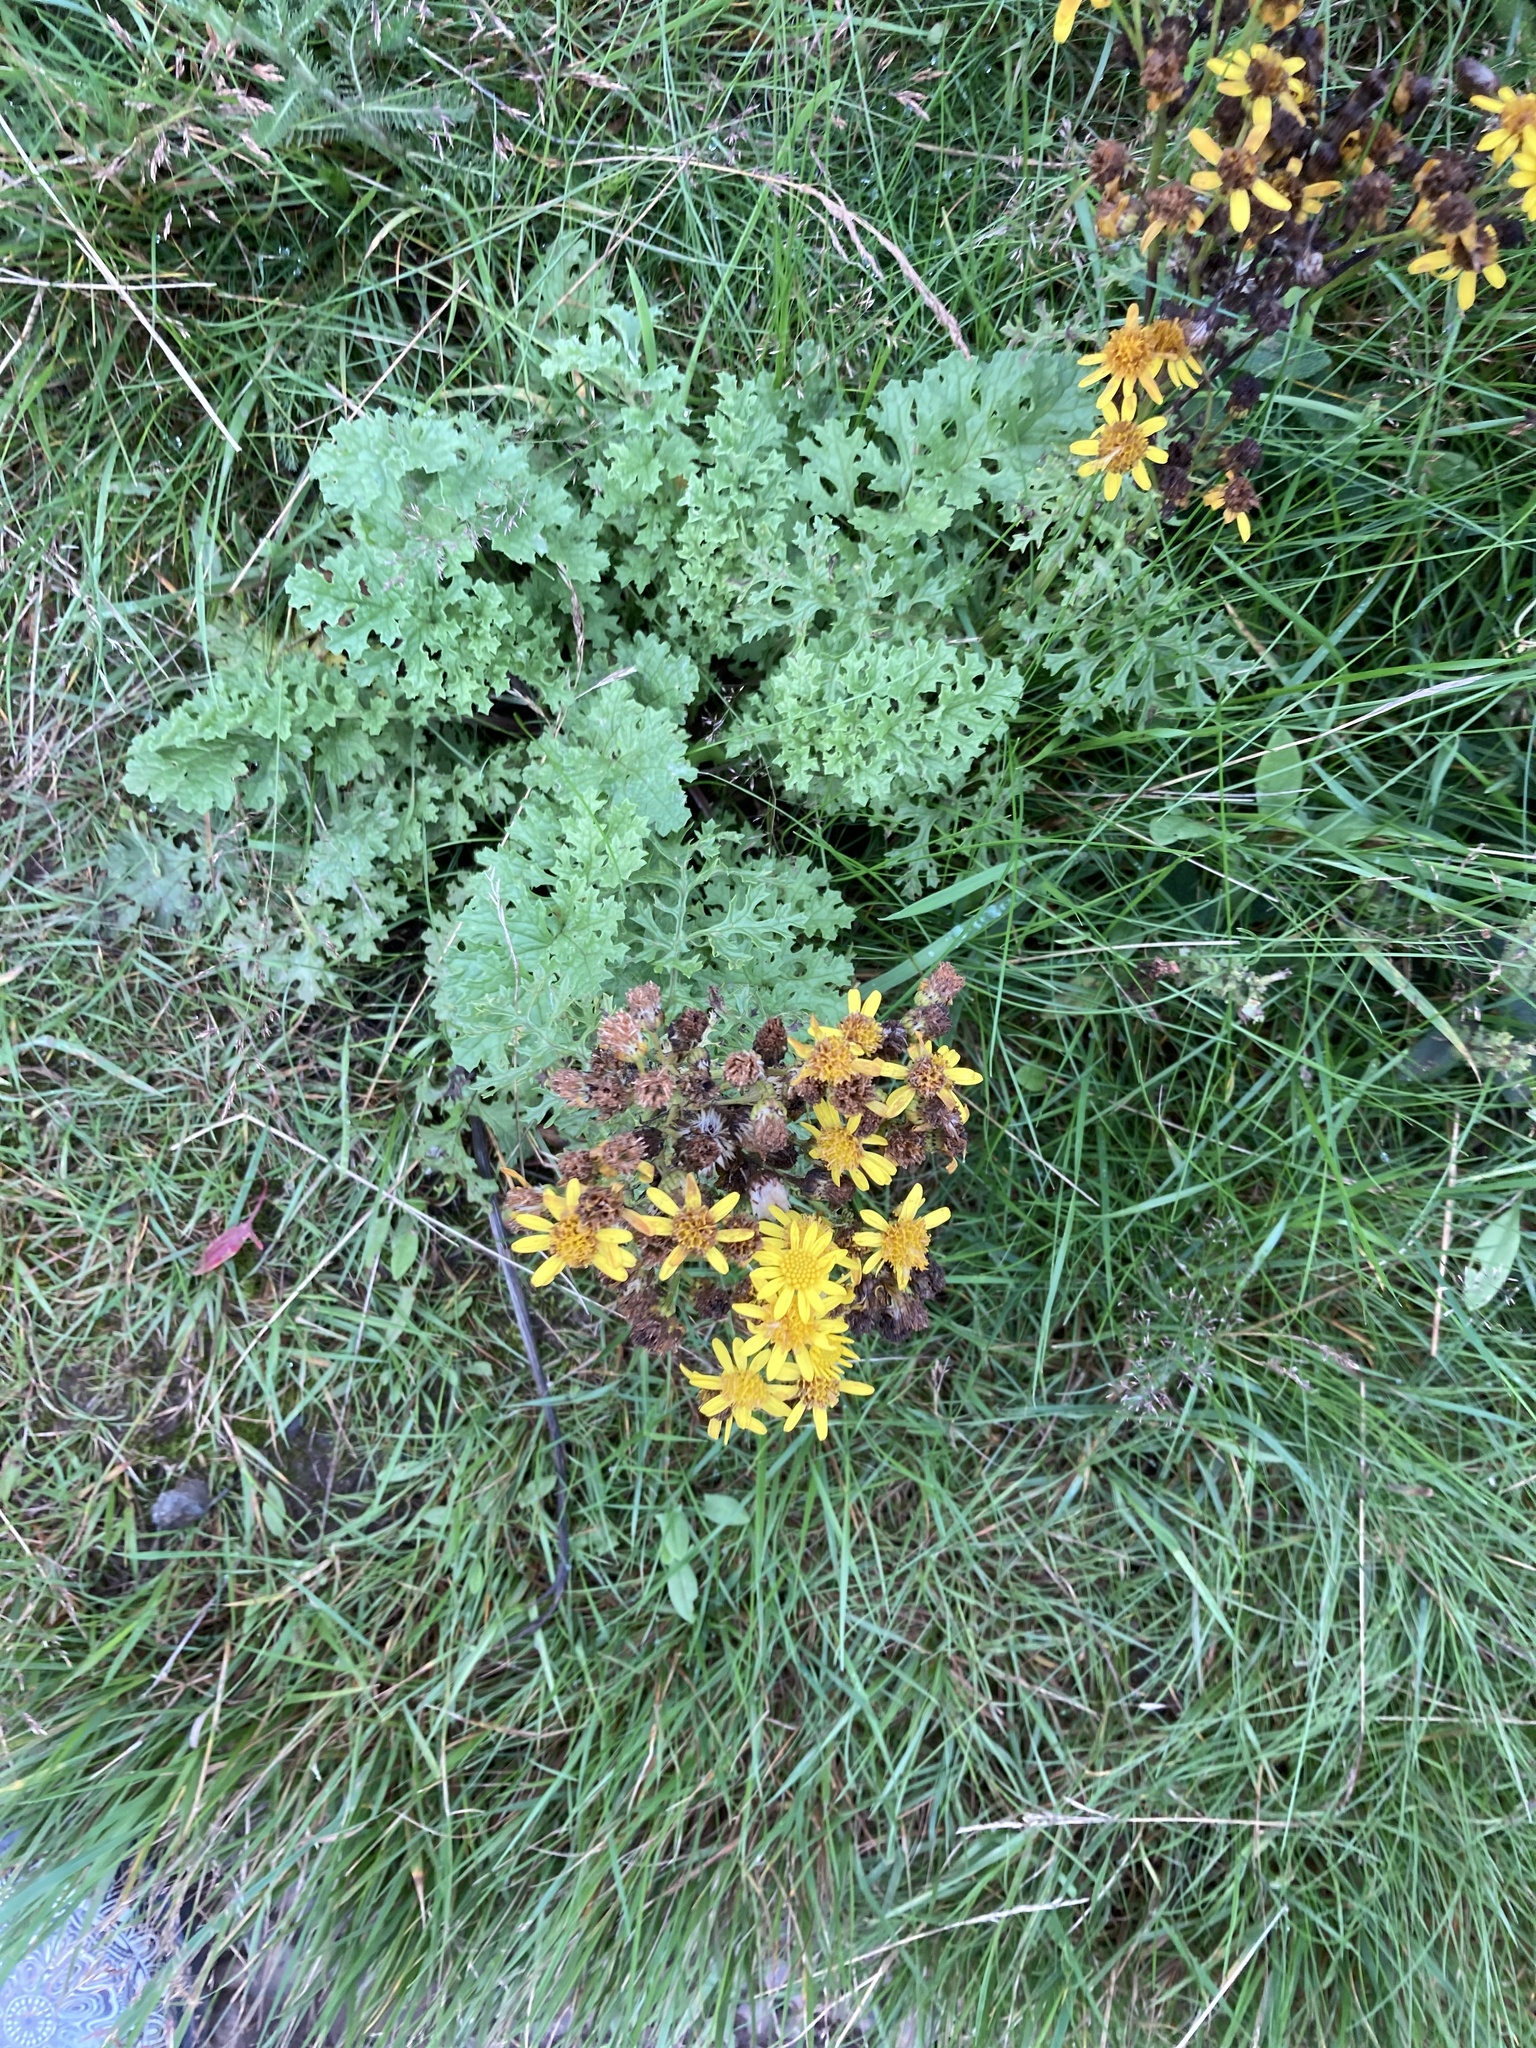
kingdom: Plantae
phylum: Tracheophyta
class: Magnoliopsida
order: Asterales
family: Asteraceae
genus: Jacobaea
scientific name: Jacobaea vulgaris
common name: Stinking willie
